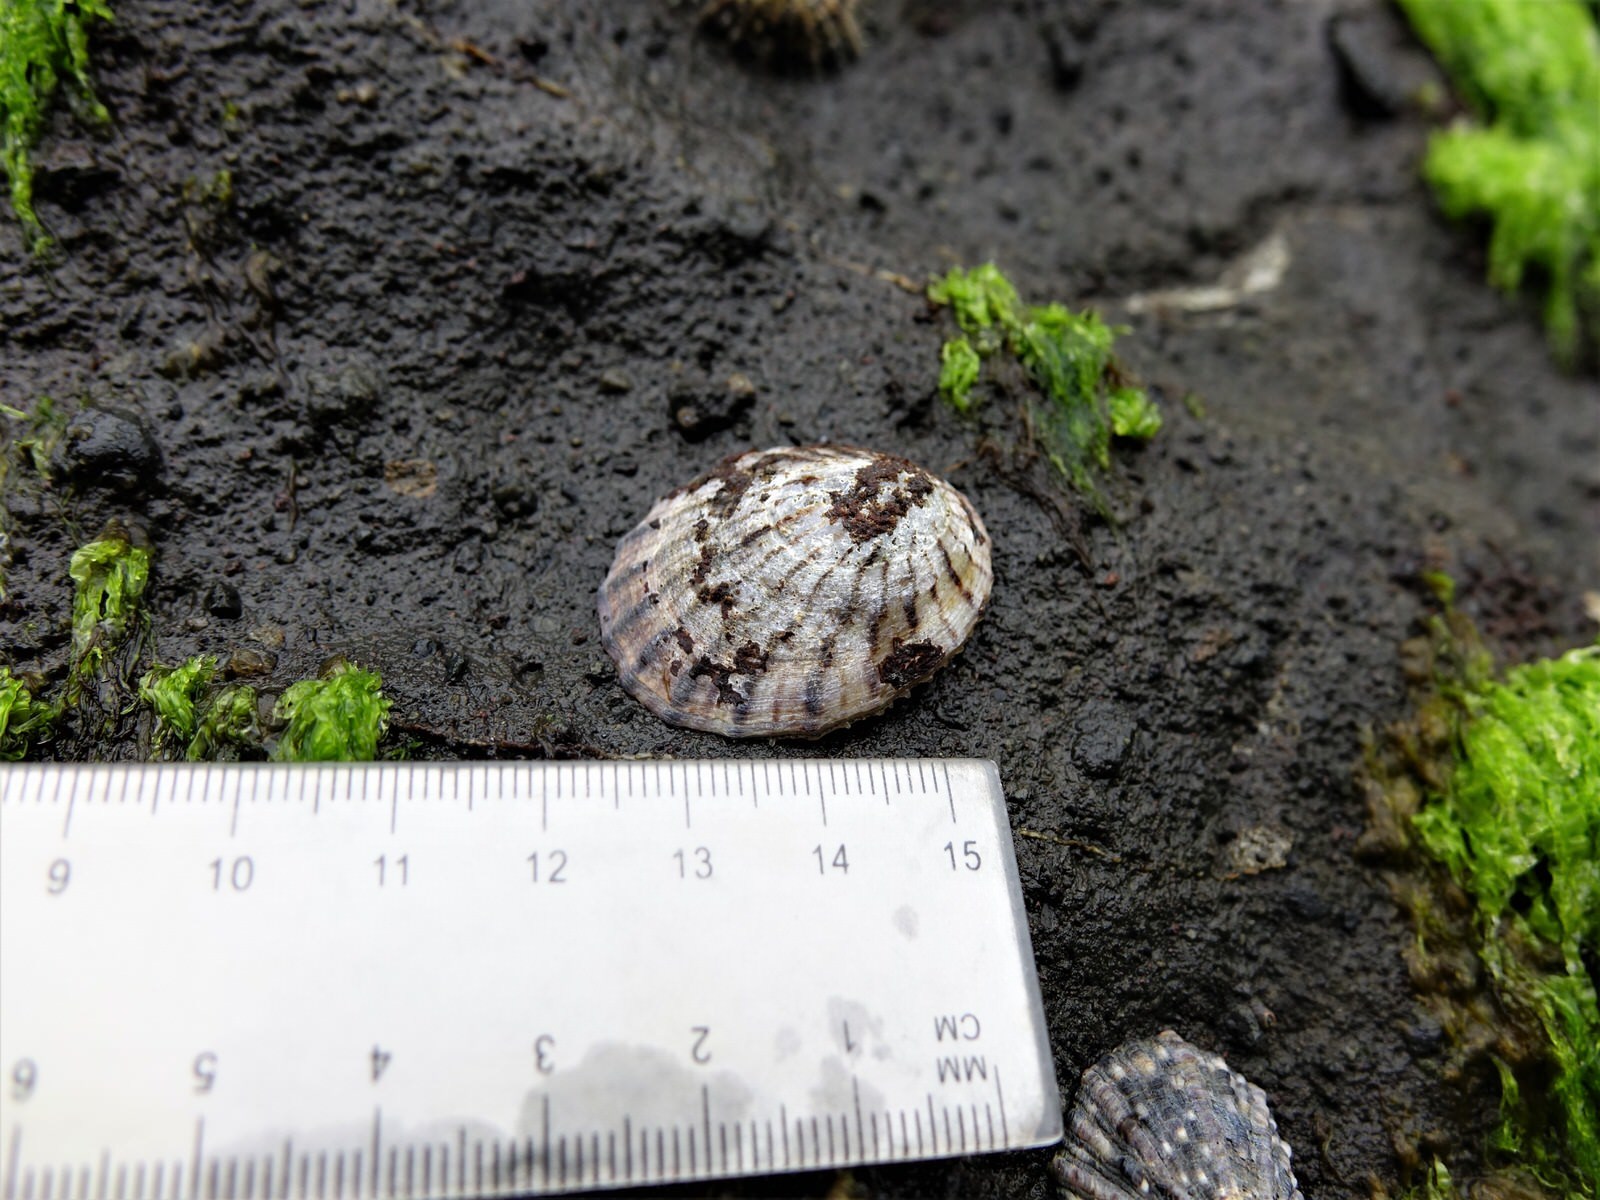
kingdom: Animalia
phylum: Mollusca
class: Gastropoda
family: Nacellidae
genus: Cellana
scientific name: Cellana radians
